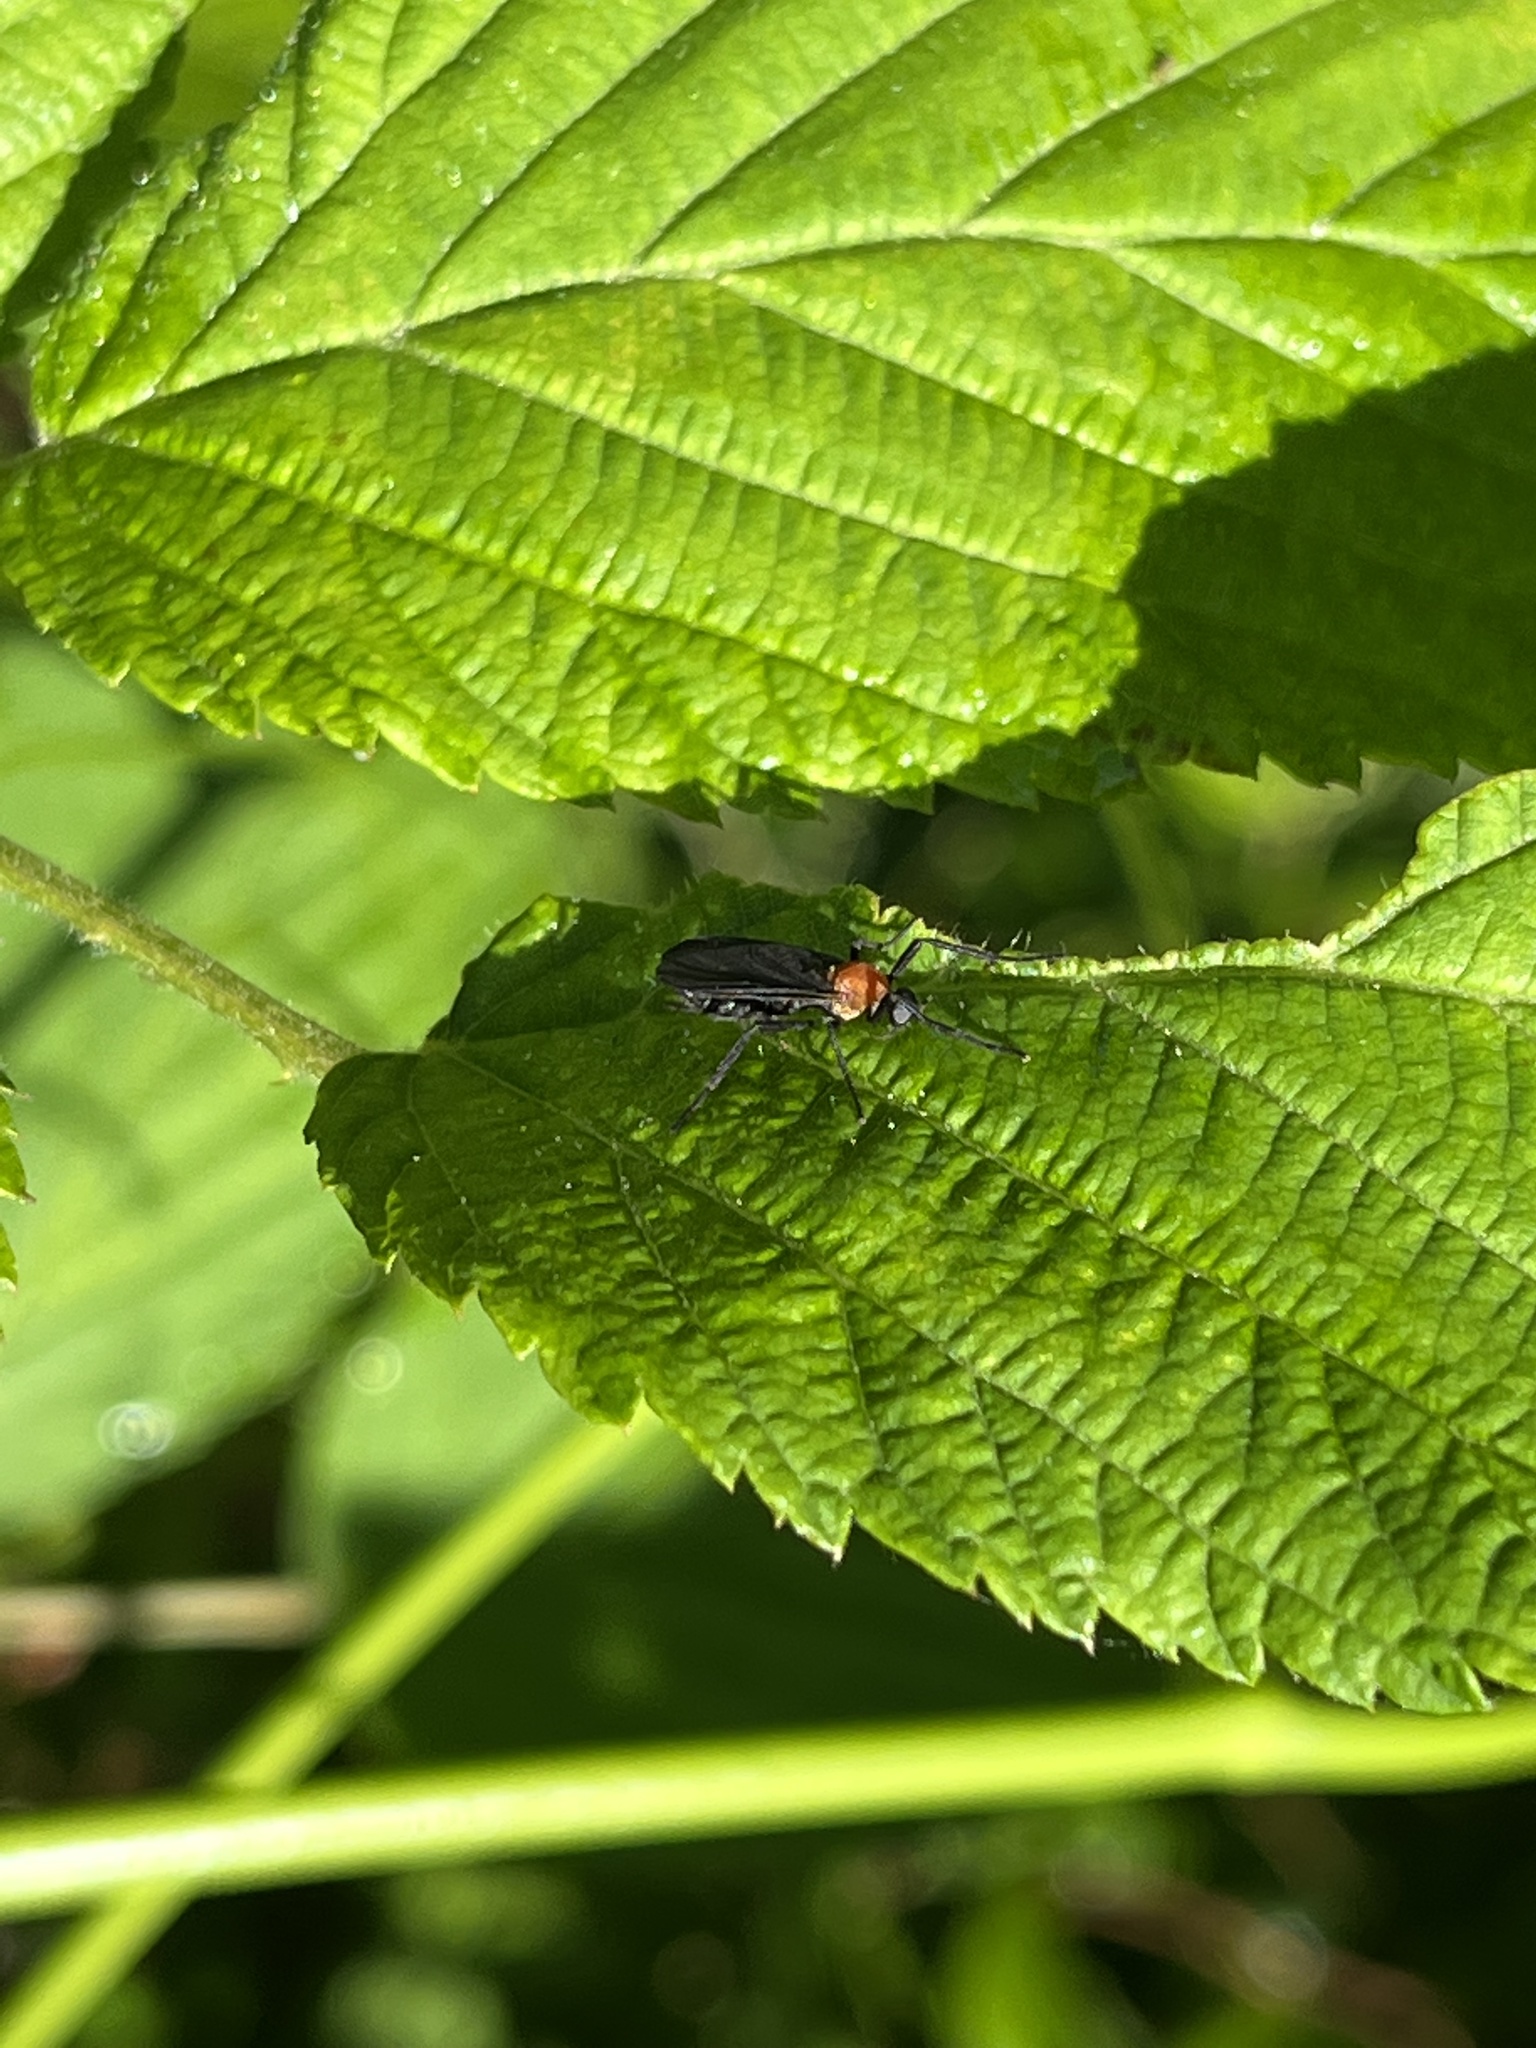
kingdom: Animalia
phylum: Arthropoda
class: Insecta
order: Diptera
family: Bibionidae
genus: Plecia
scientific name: Plecia americana
